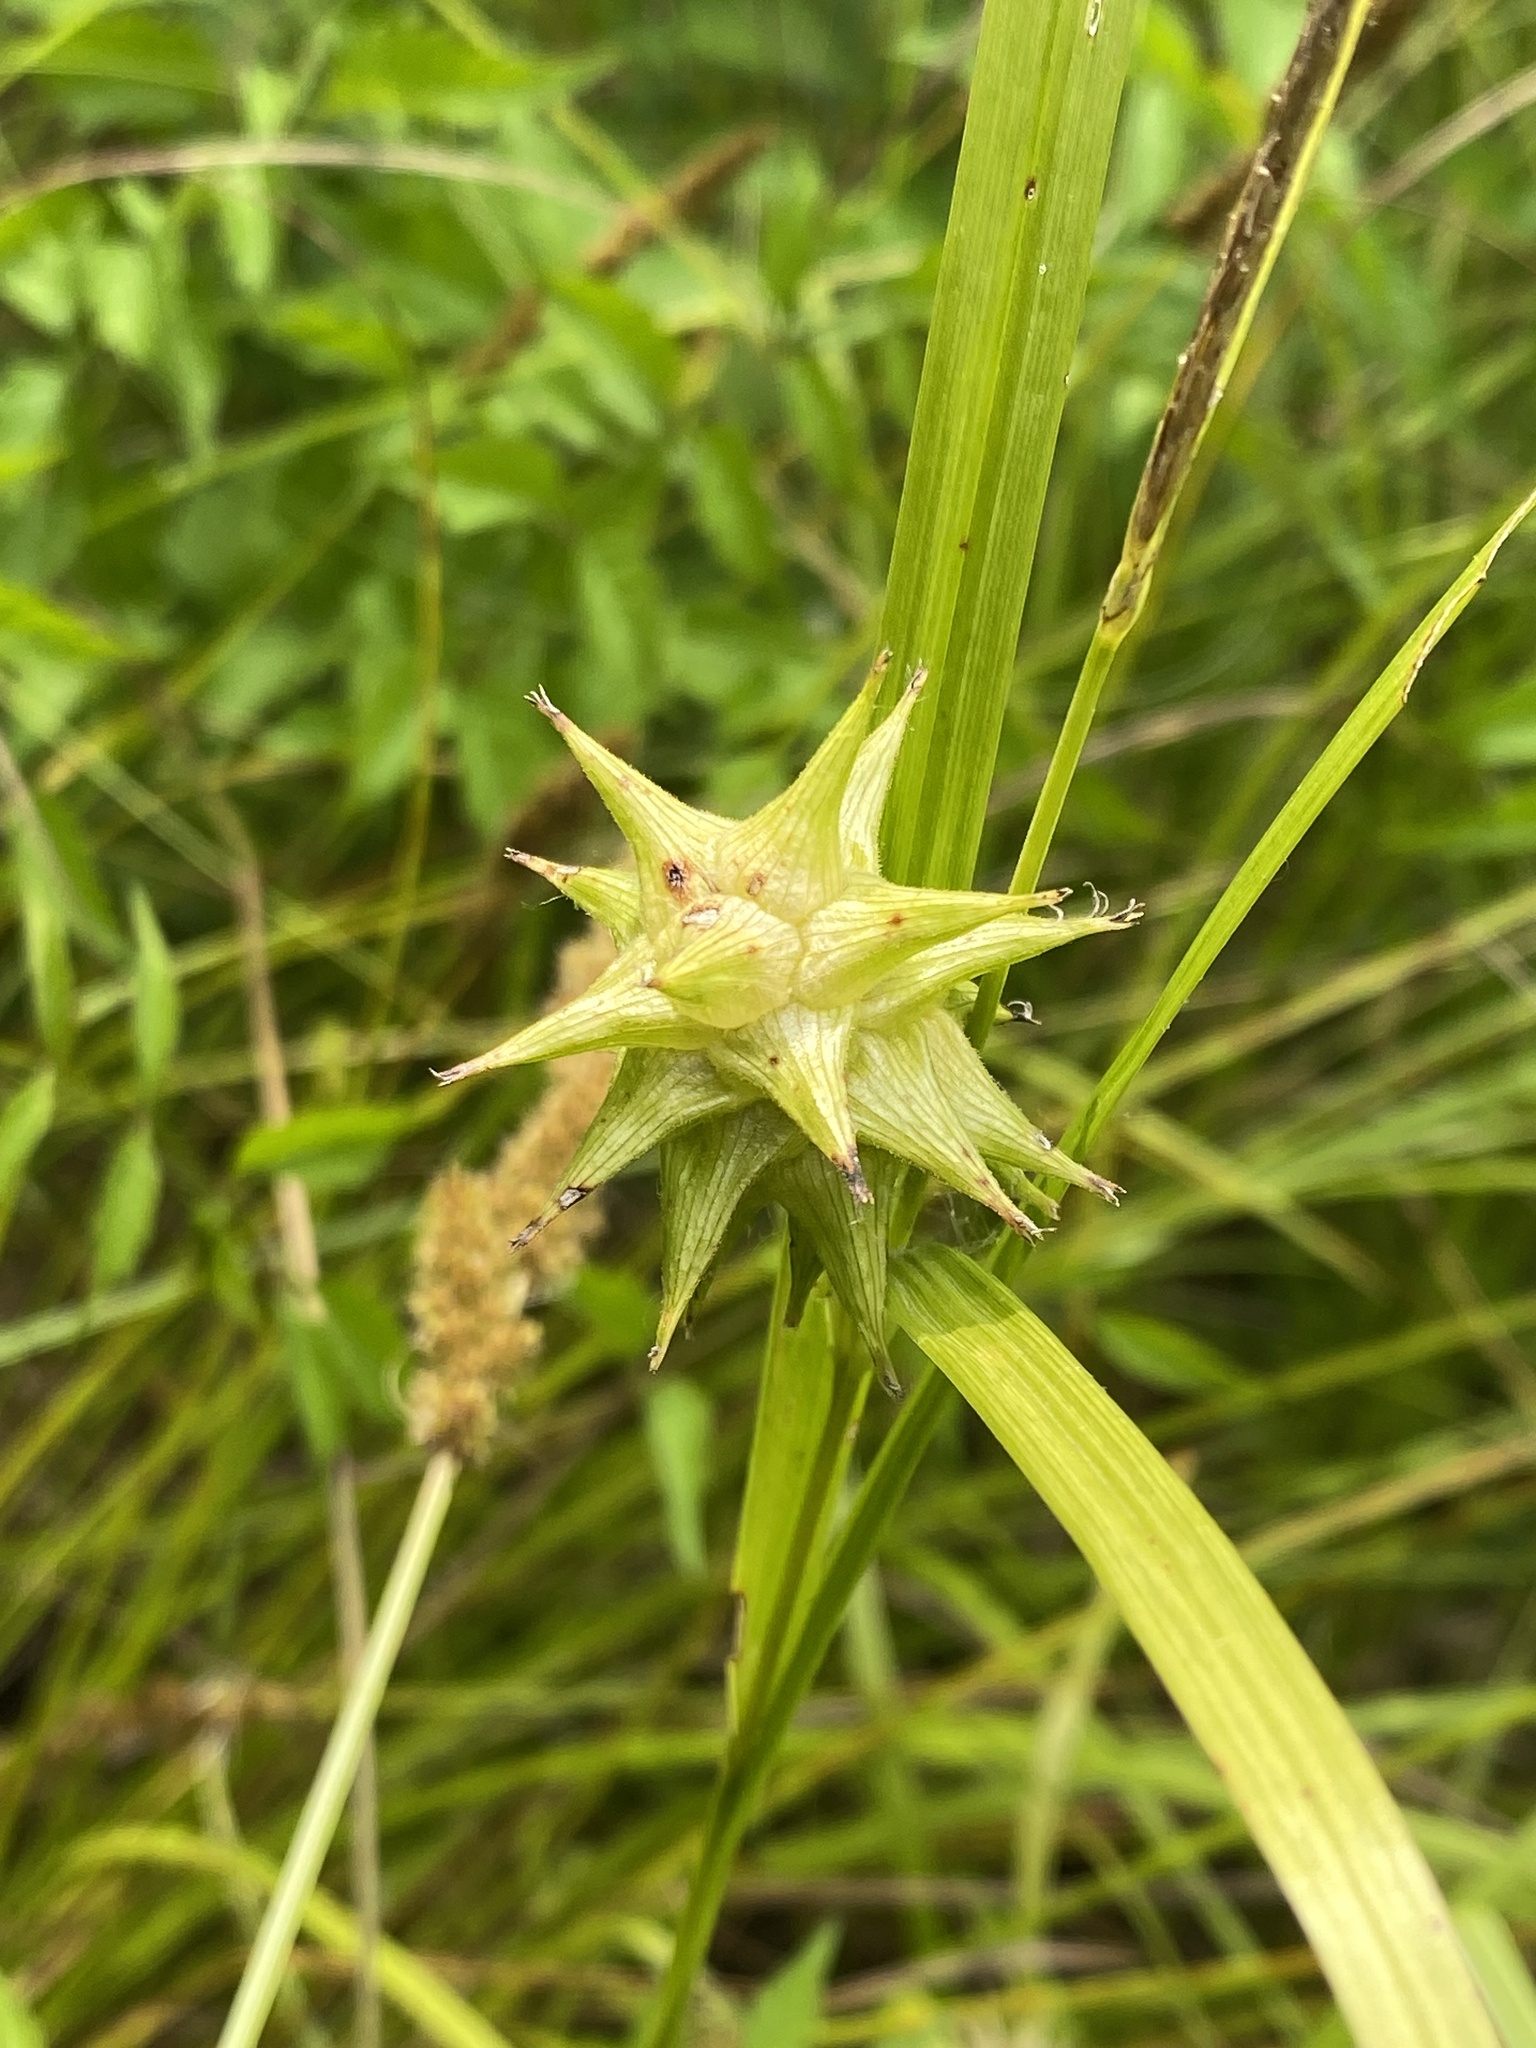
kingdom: Plantae
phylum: Tracheophyta
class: Liliopsida
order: Poales
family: Cyperaceae
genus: Carex
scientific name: Carex grayi
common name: Asa gray's sedge
